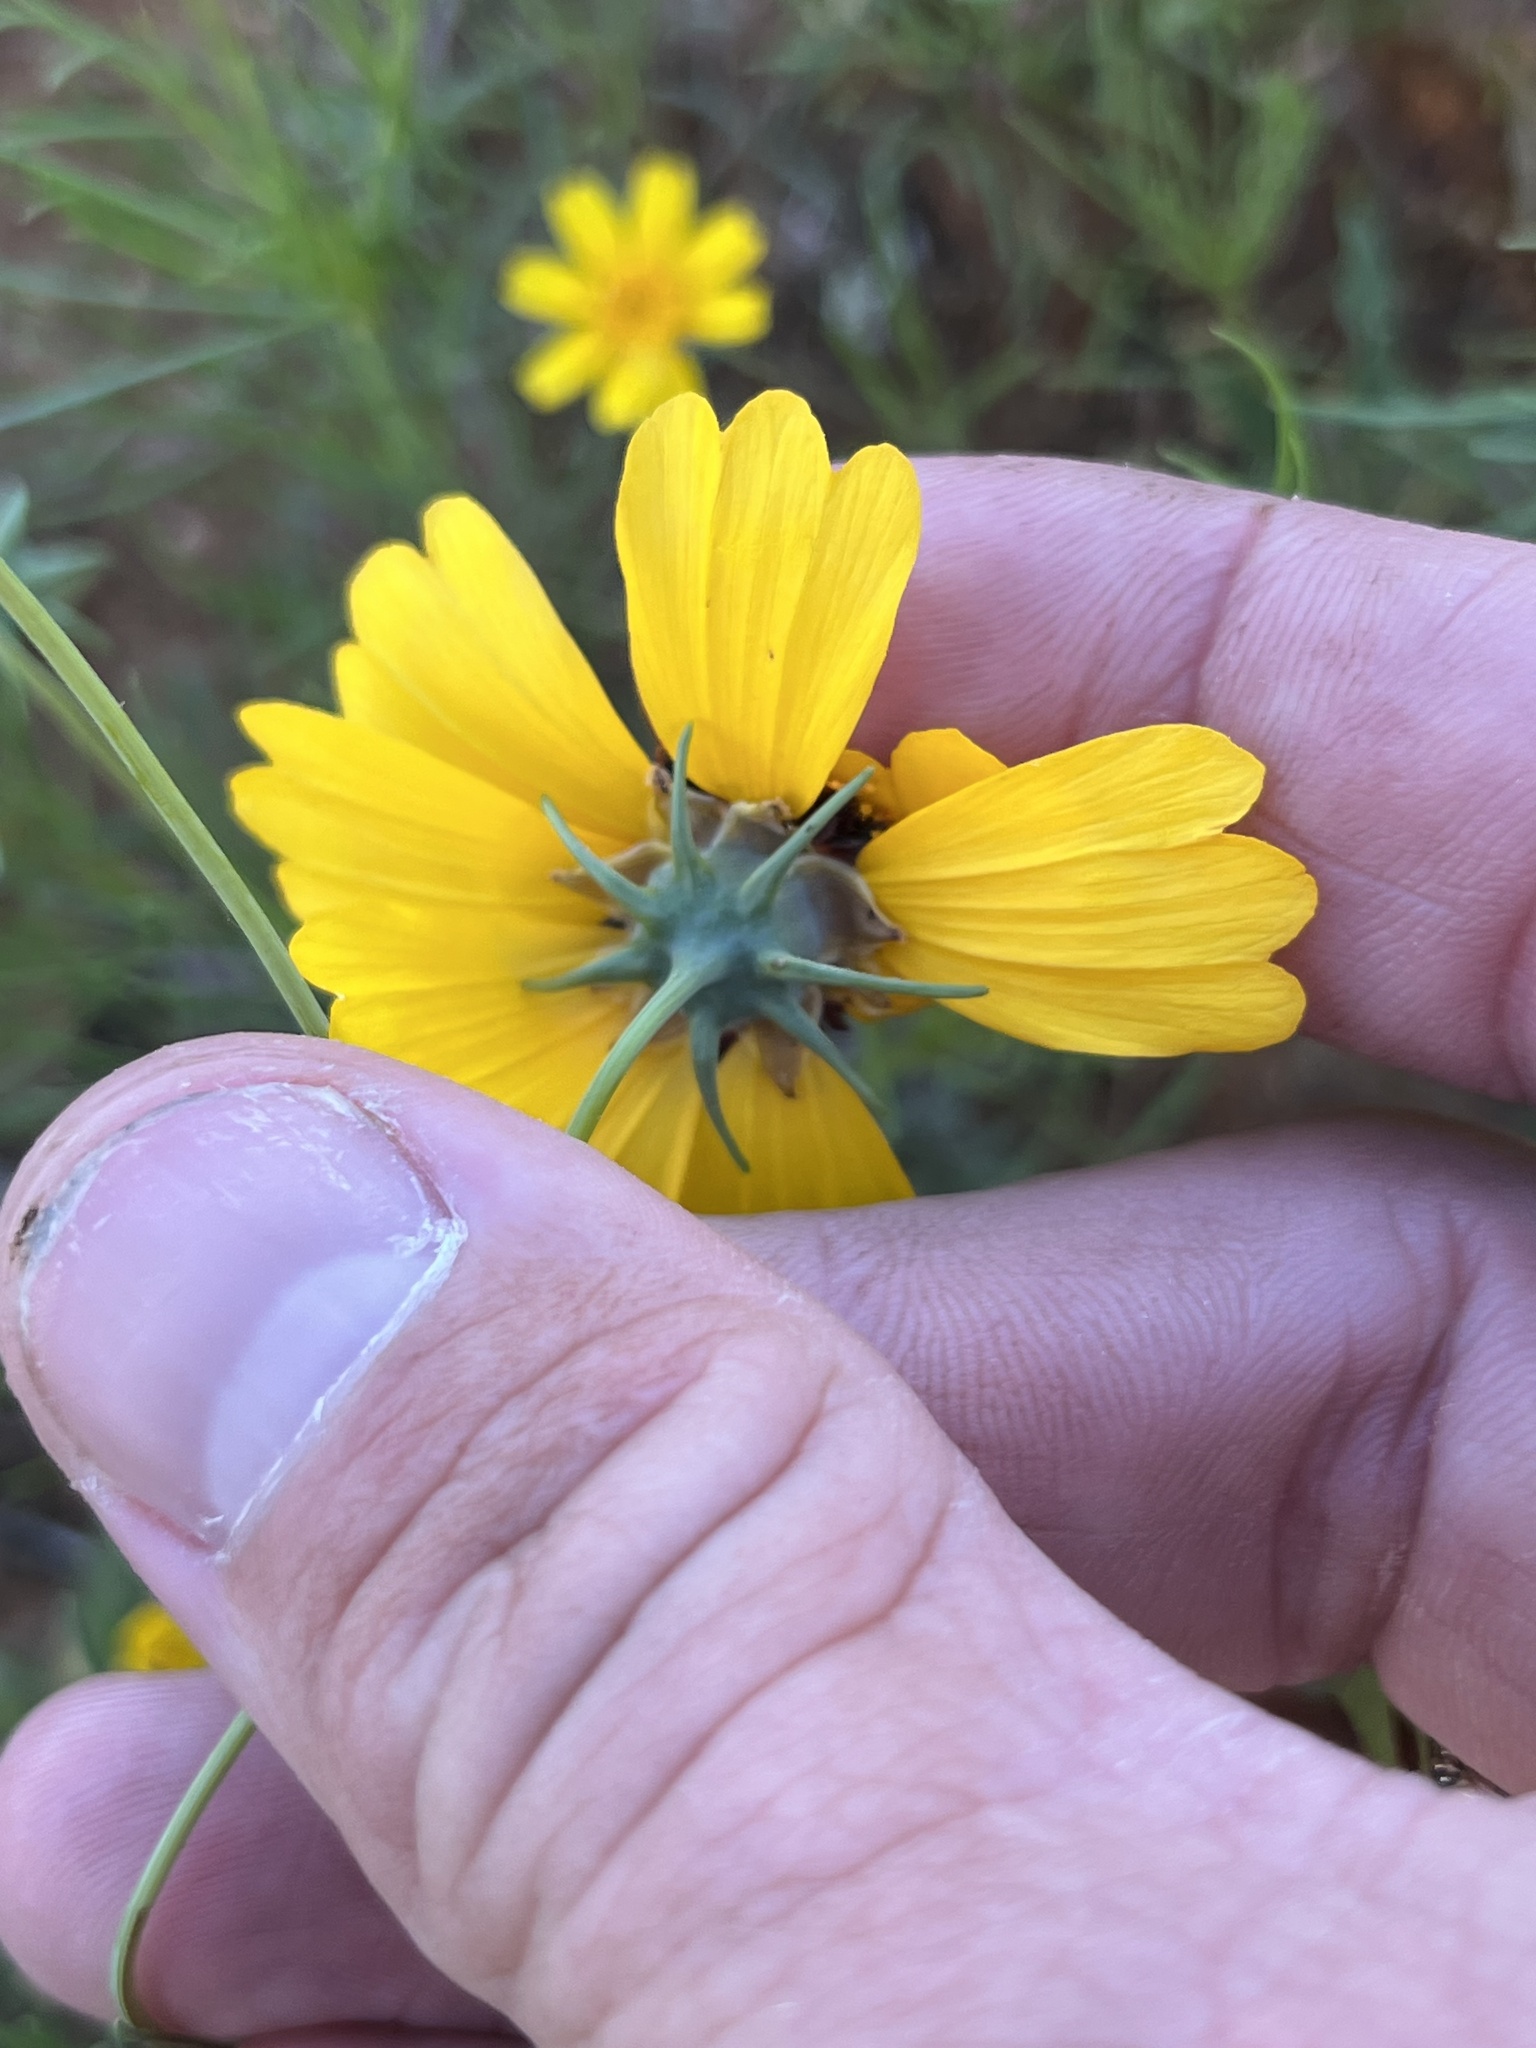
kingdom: Plantae
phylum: Tracheophyta
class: Magnoliopsida
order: Asterales
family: Asteraceae
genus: Thelesperma
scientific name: Thelesperma filifolium
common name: Stiff greenthread
